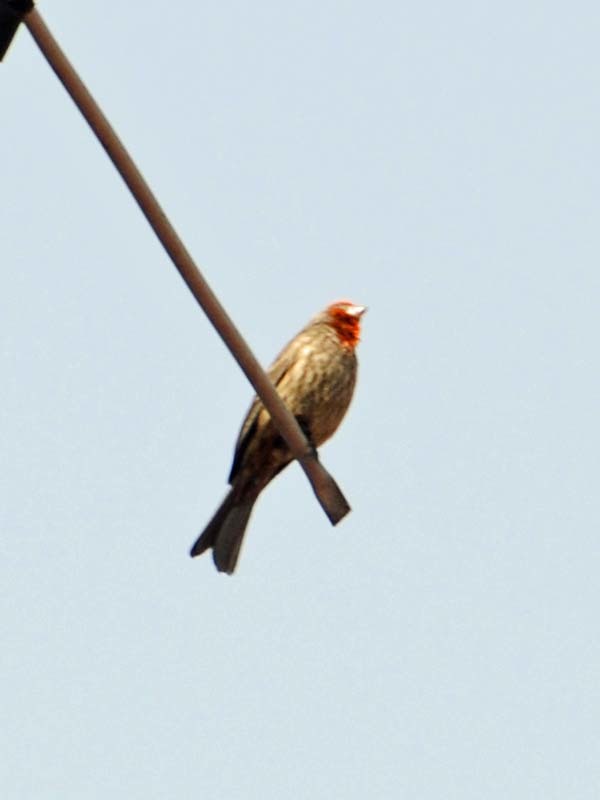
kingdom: Animalia
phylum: Chordata
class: Aves
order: Passeriformes
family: Fringillidae
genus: Haemorhous
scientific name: Haemorhous mexicanus
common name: House finch
